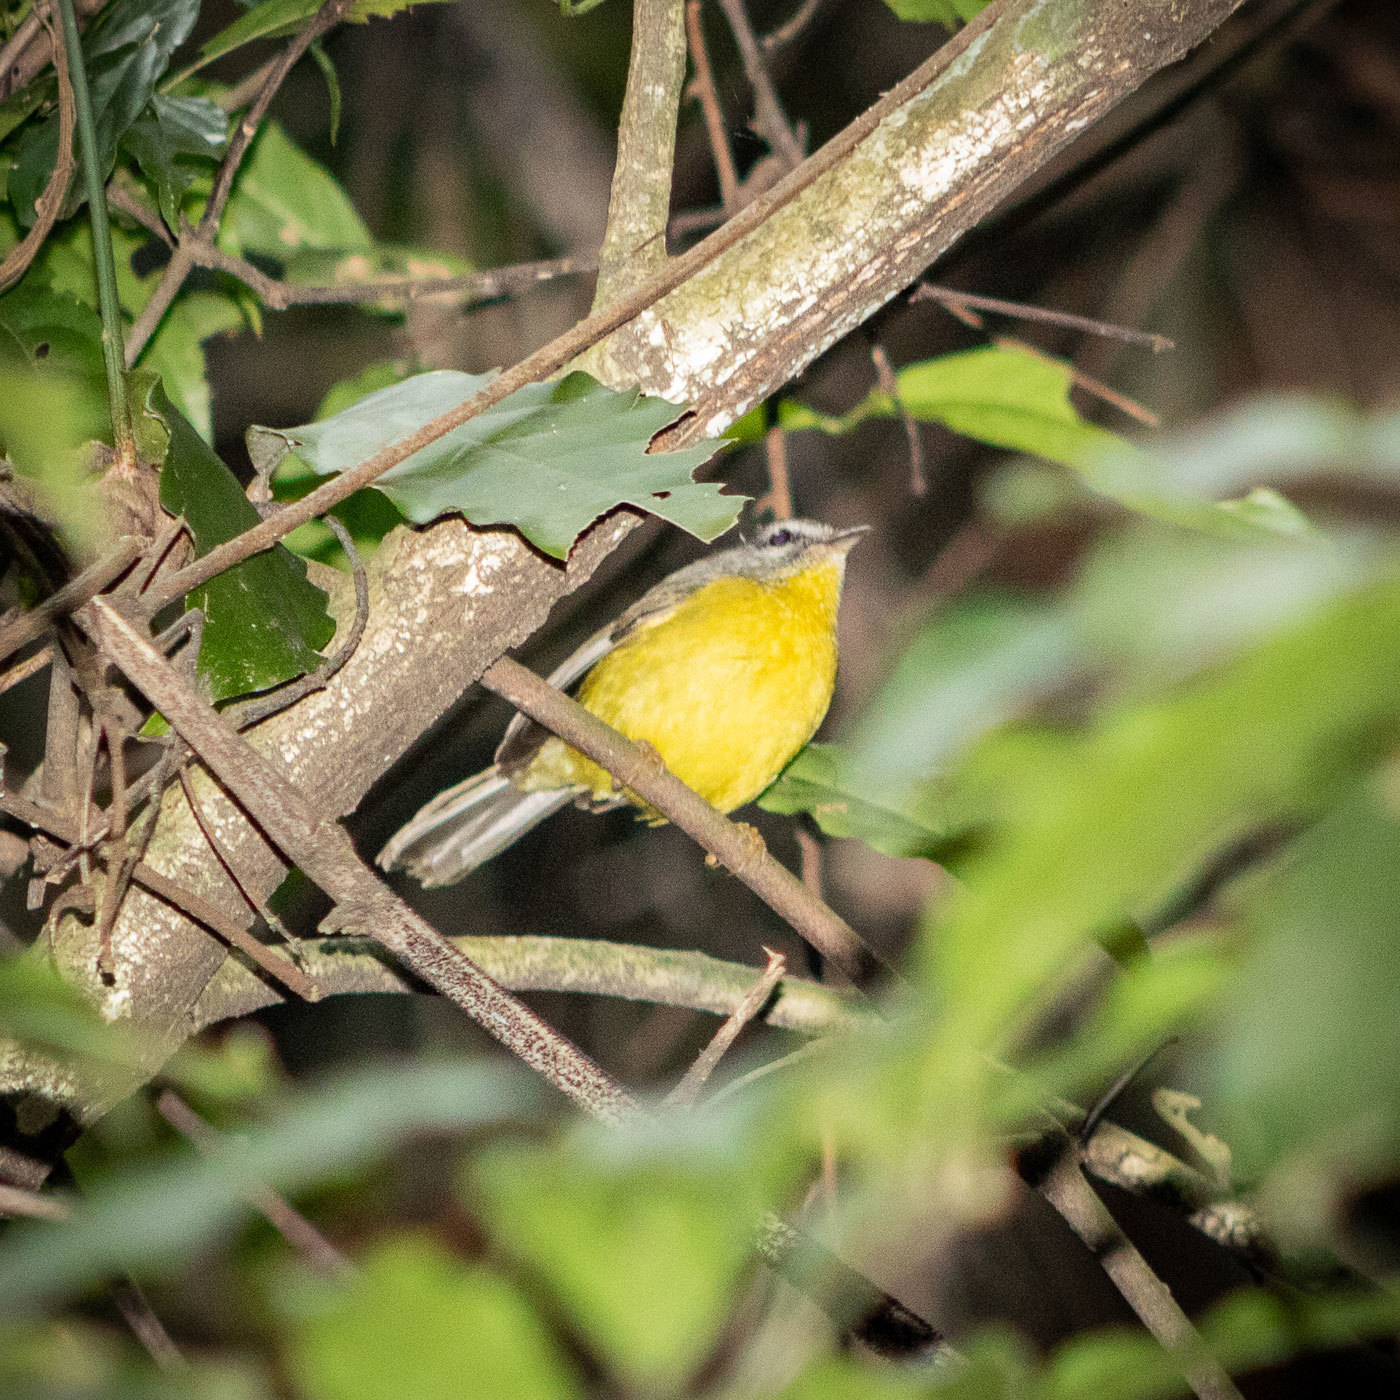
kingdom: Animalia
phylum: Chordata
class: Aves
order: Passeriformes
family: Parulidae
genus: Basileuterus
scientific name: Basileuterus culicivorus
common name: Golden-crowned warbler
